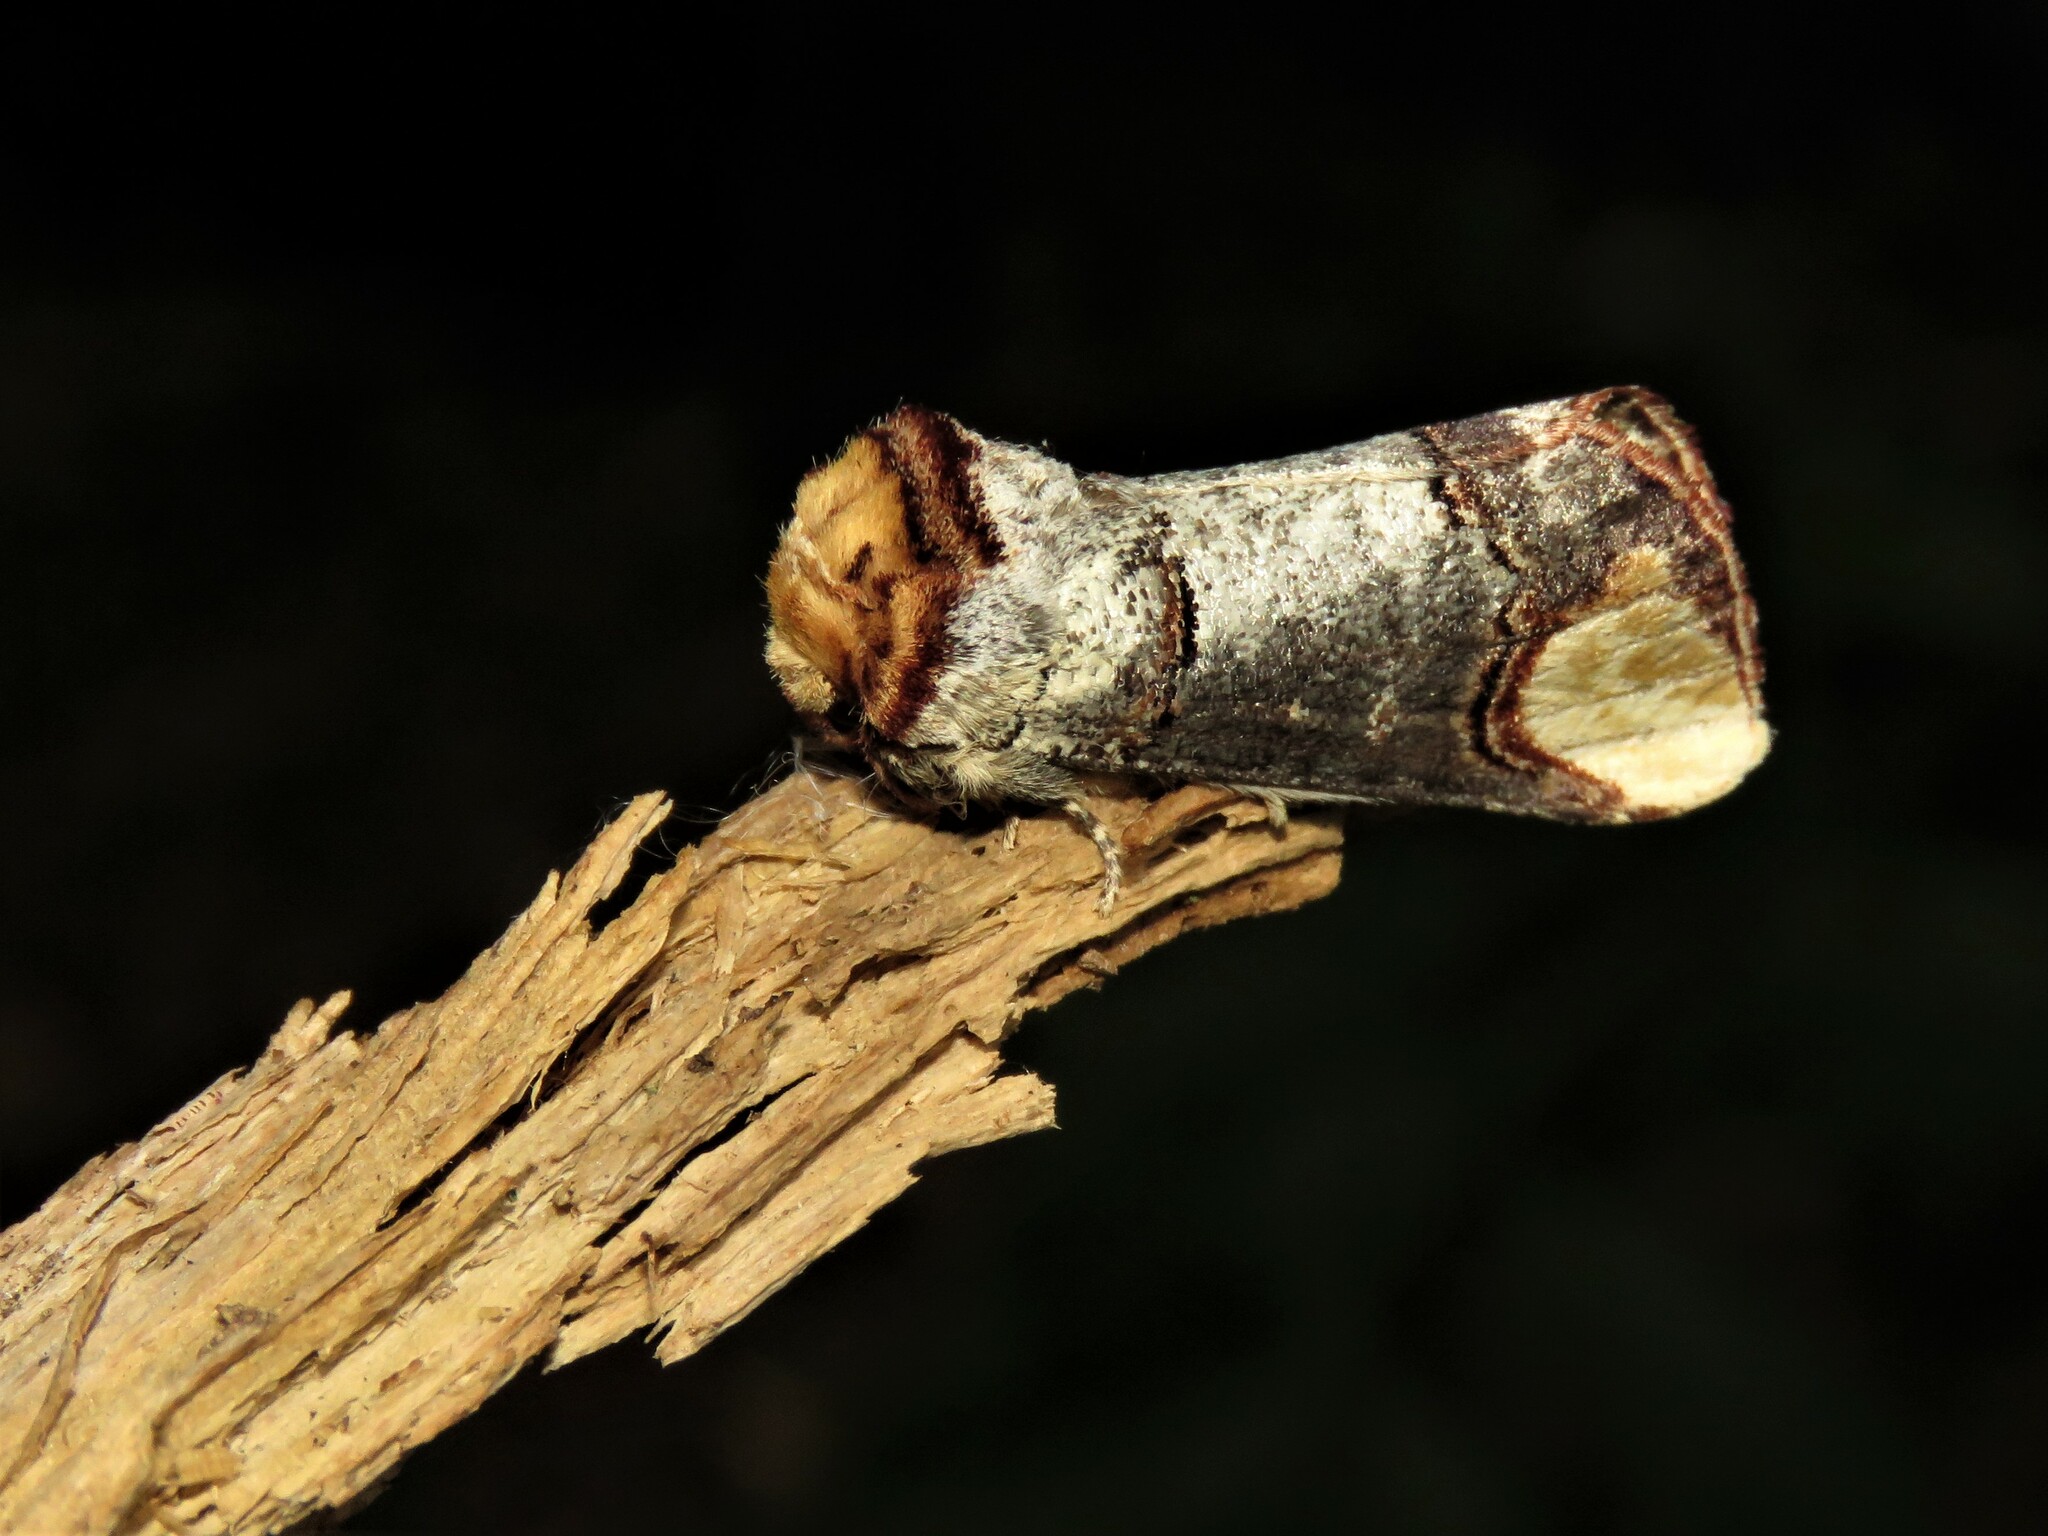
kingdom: Animalia
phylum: Arthropoda
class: Insecta
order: Lepidoptera
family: Notodontidae
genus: Phalera
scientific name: Phalera bucephala
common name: Buff-tip
